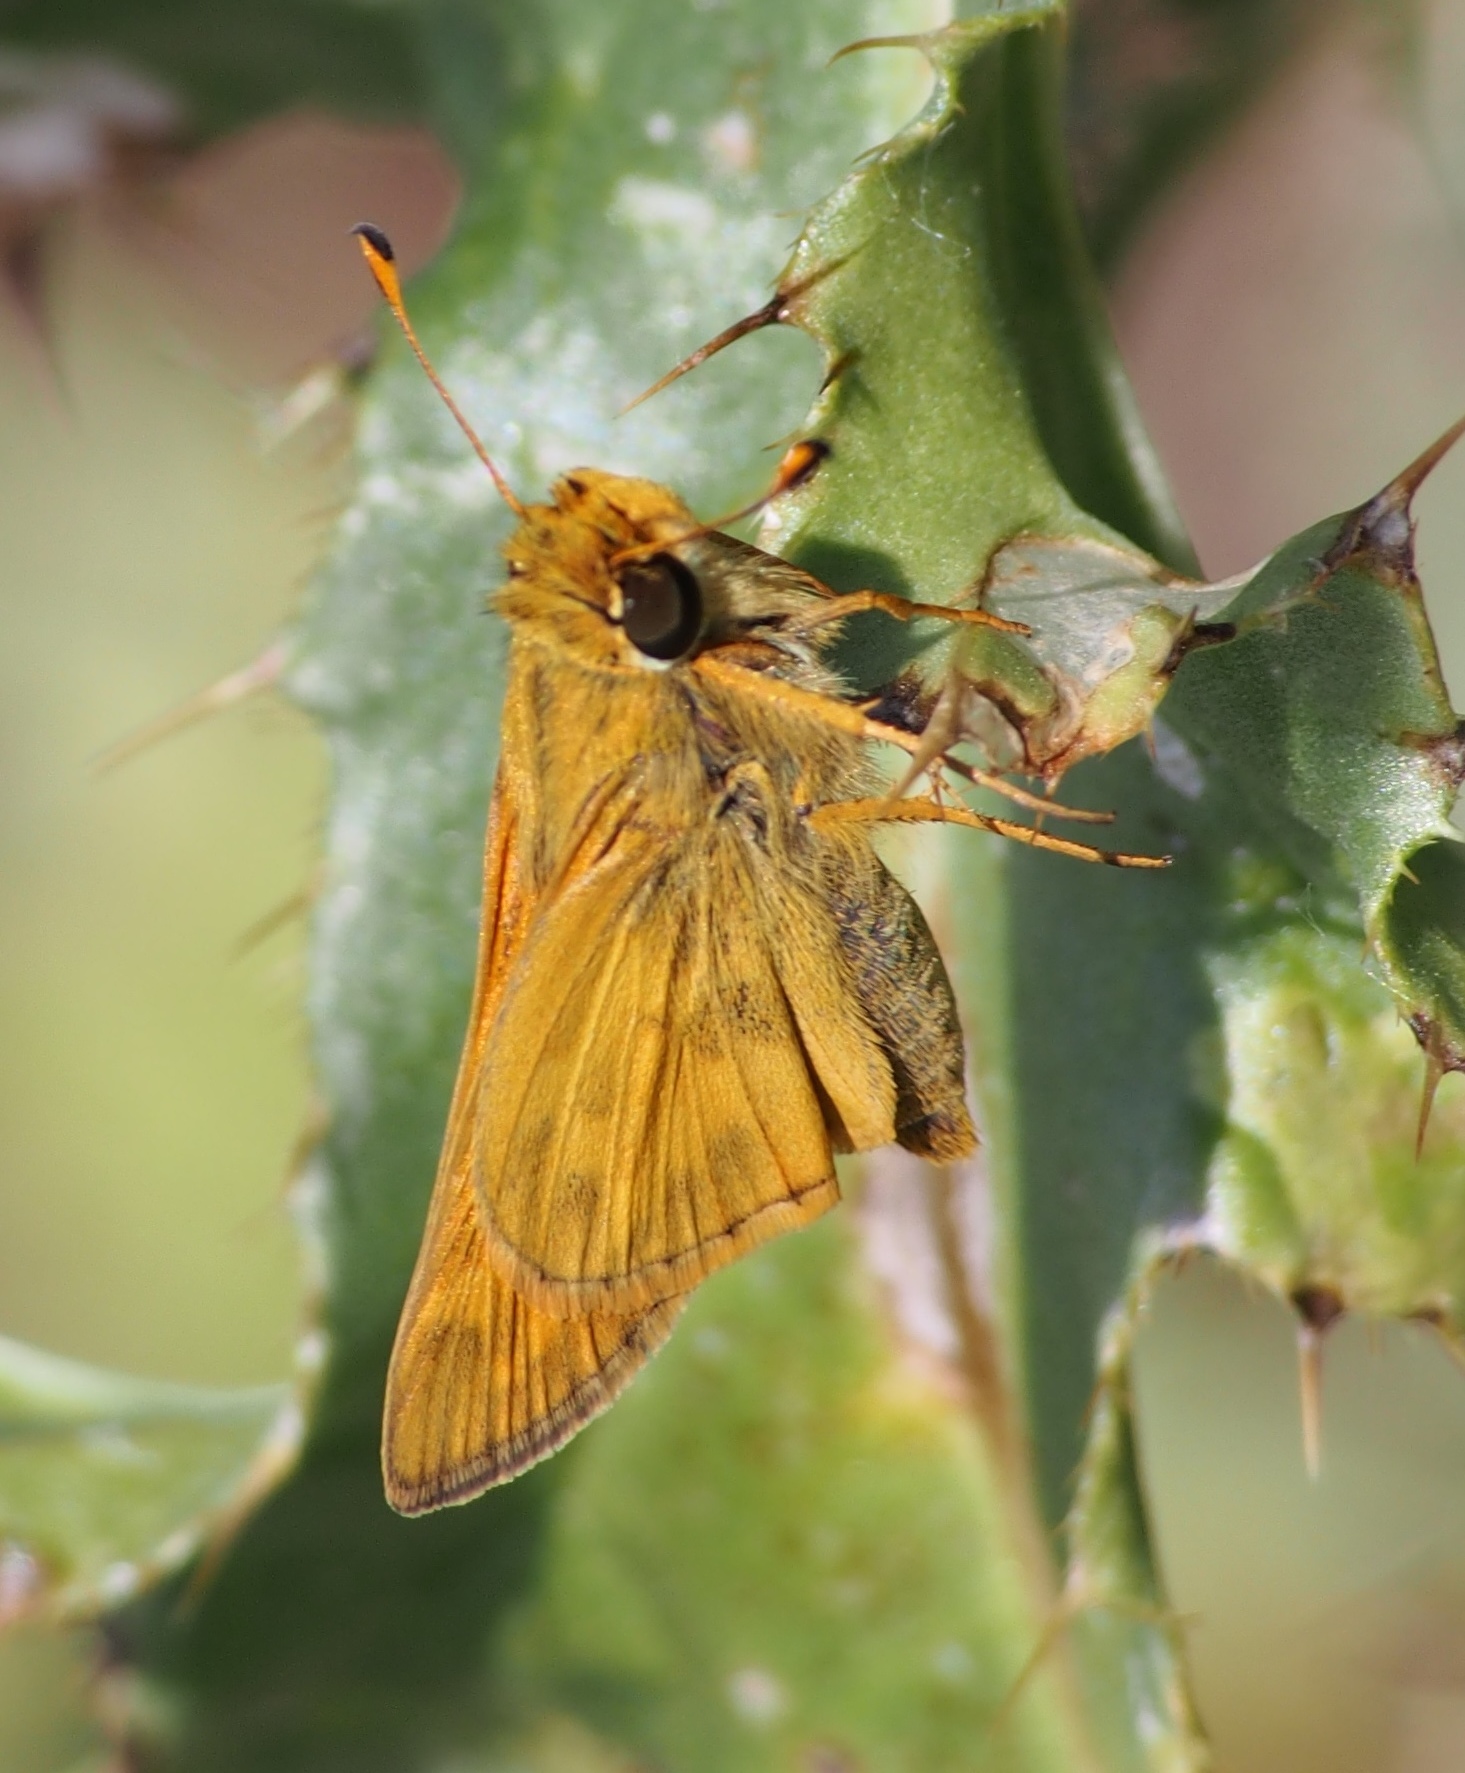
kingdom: Animalia
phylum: Arthropoda
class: Insecta
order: Lepidoptera
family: Hesperiidae
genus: Atalopedes
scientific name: Atalopedes
